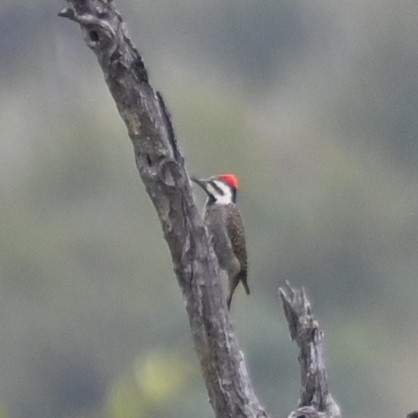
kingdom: Animalia
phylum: Chordata
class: Aves
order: Piciformes
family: Picidae
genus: Chloropicus
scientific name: Chloropicus namaquus
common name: Bearded woodpecker
